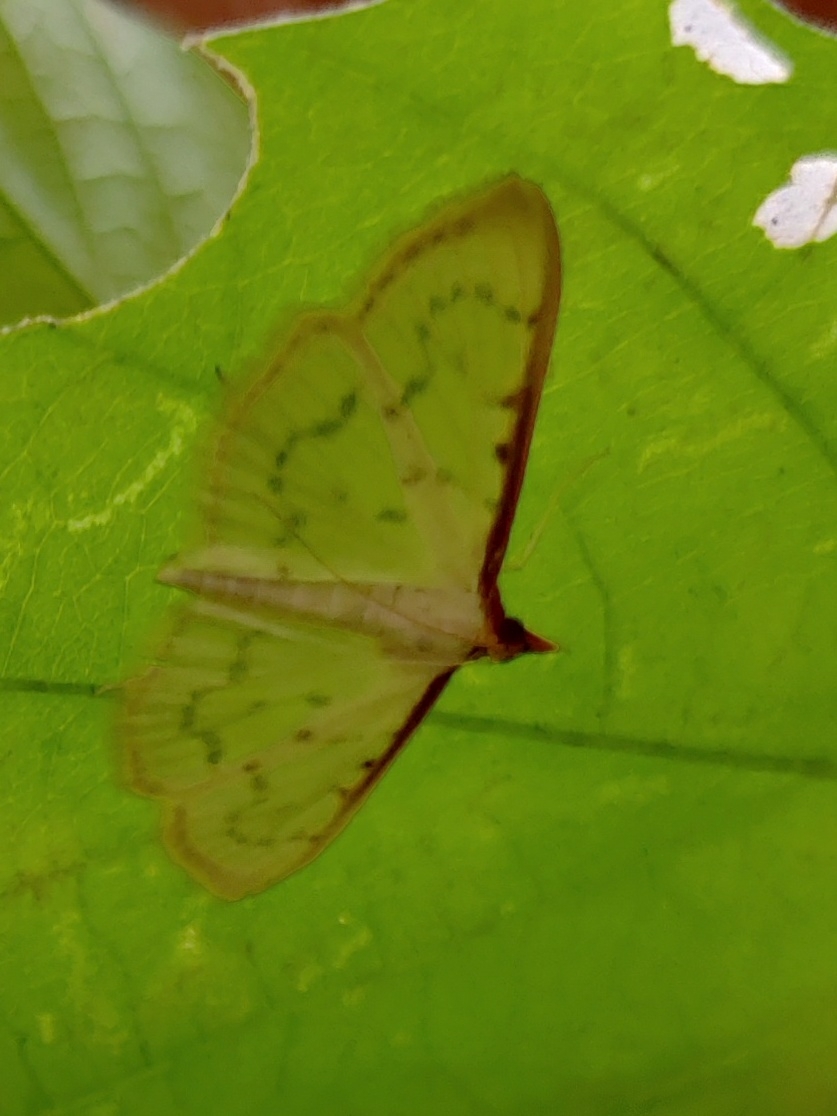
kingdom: Animalia
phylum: Arthropoda
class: Insecta
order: Lepidoptera
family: Crambidae
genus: Pyrausta
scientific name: Pyrausta testalis
